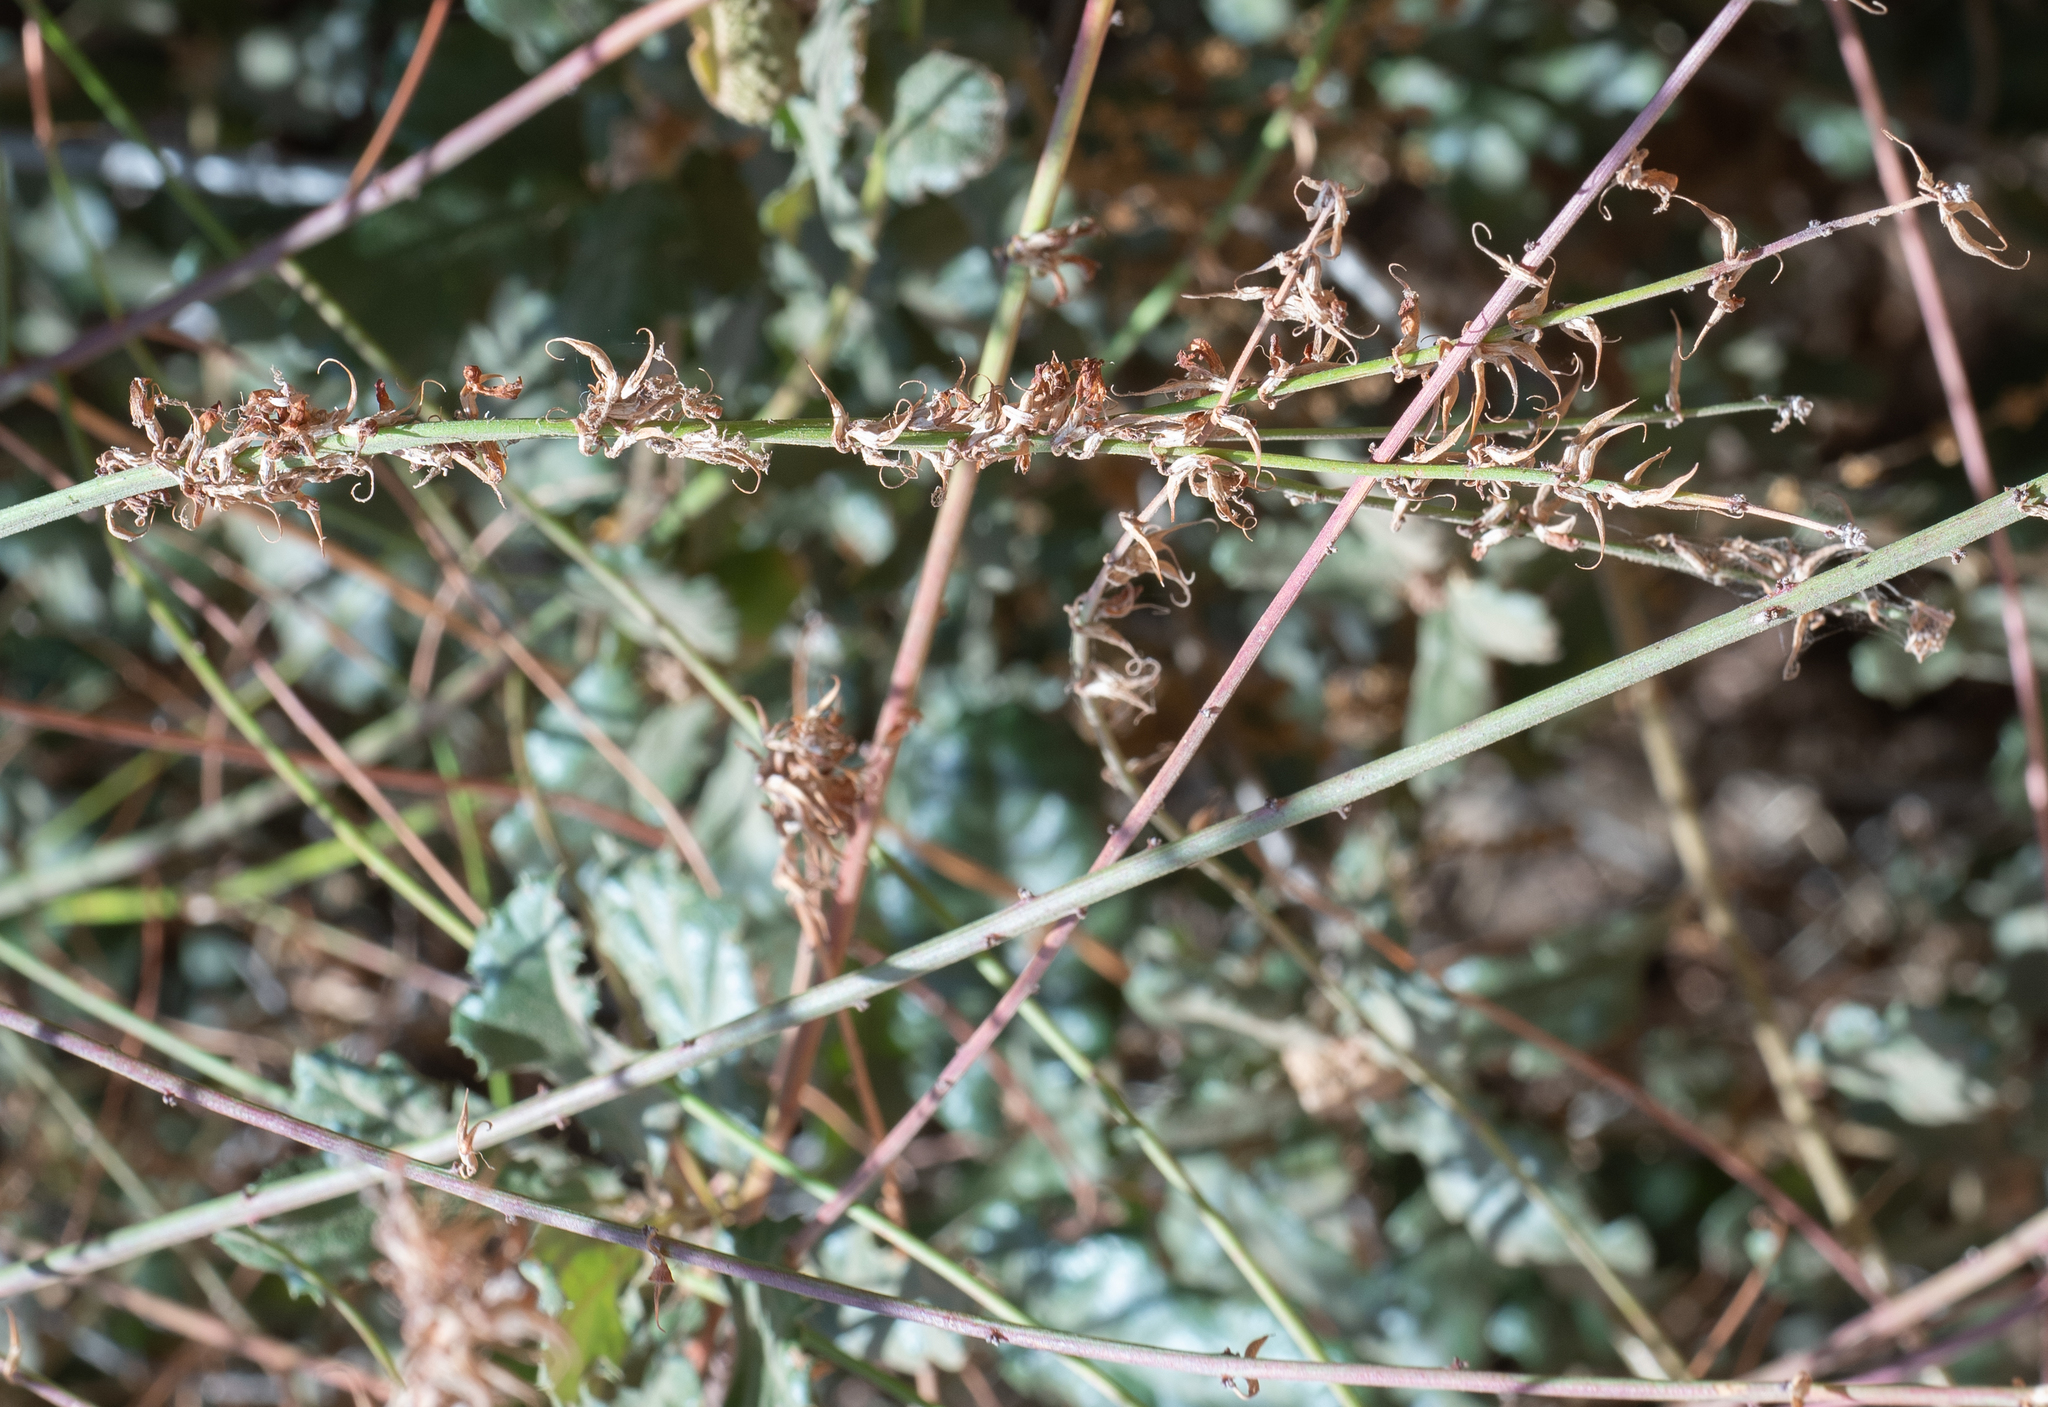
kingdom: Plantae
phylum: Tracheophyta
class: Magnoliopsida
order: Fabales
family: Fabaceae
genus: Acmispon
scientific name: Acmispon glaber
